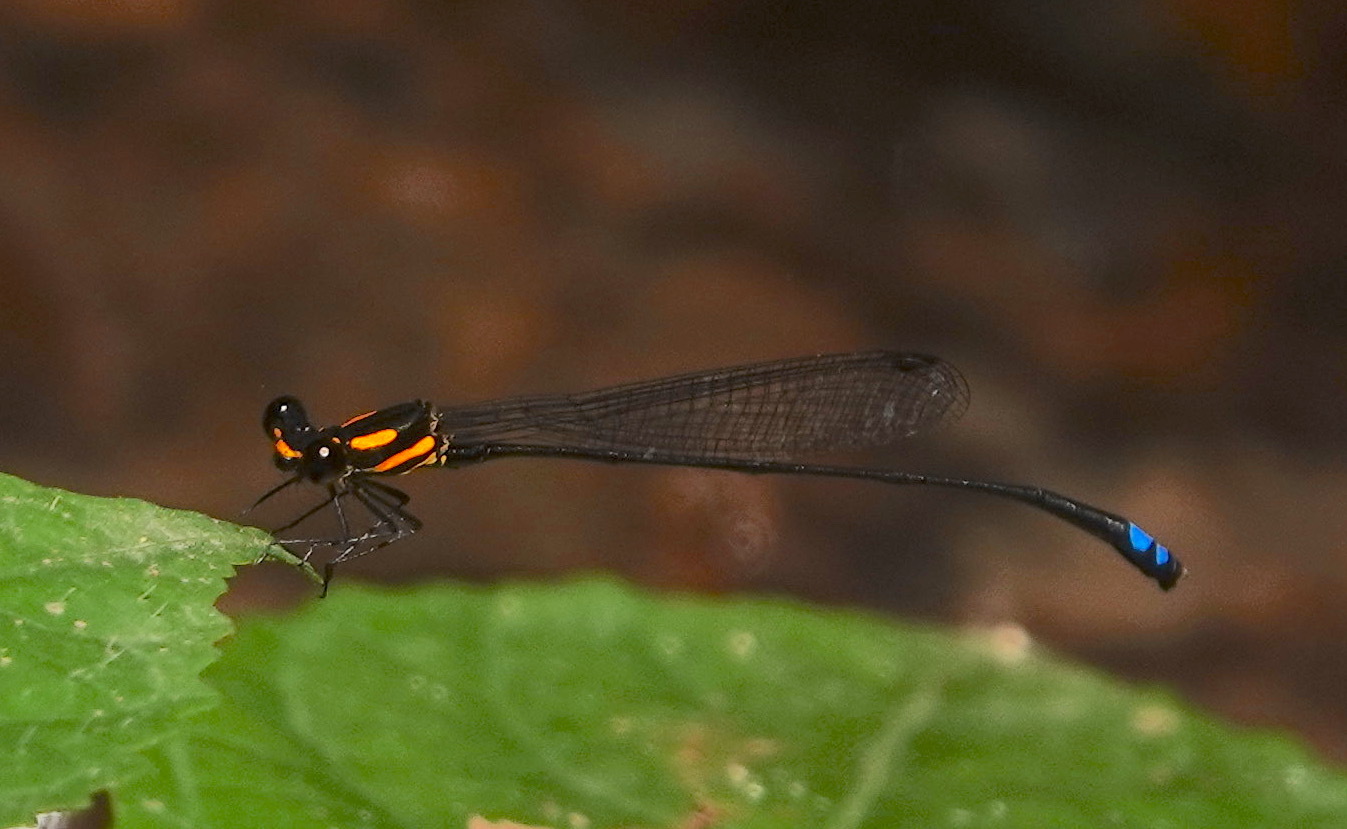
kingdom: Animalia
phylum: Arthropoda
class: Insecta
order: Odonata
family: Platycnemididae
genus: Nososticta
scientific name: Nososticta insignis
